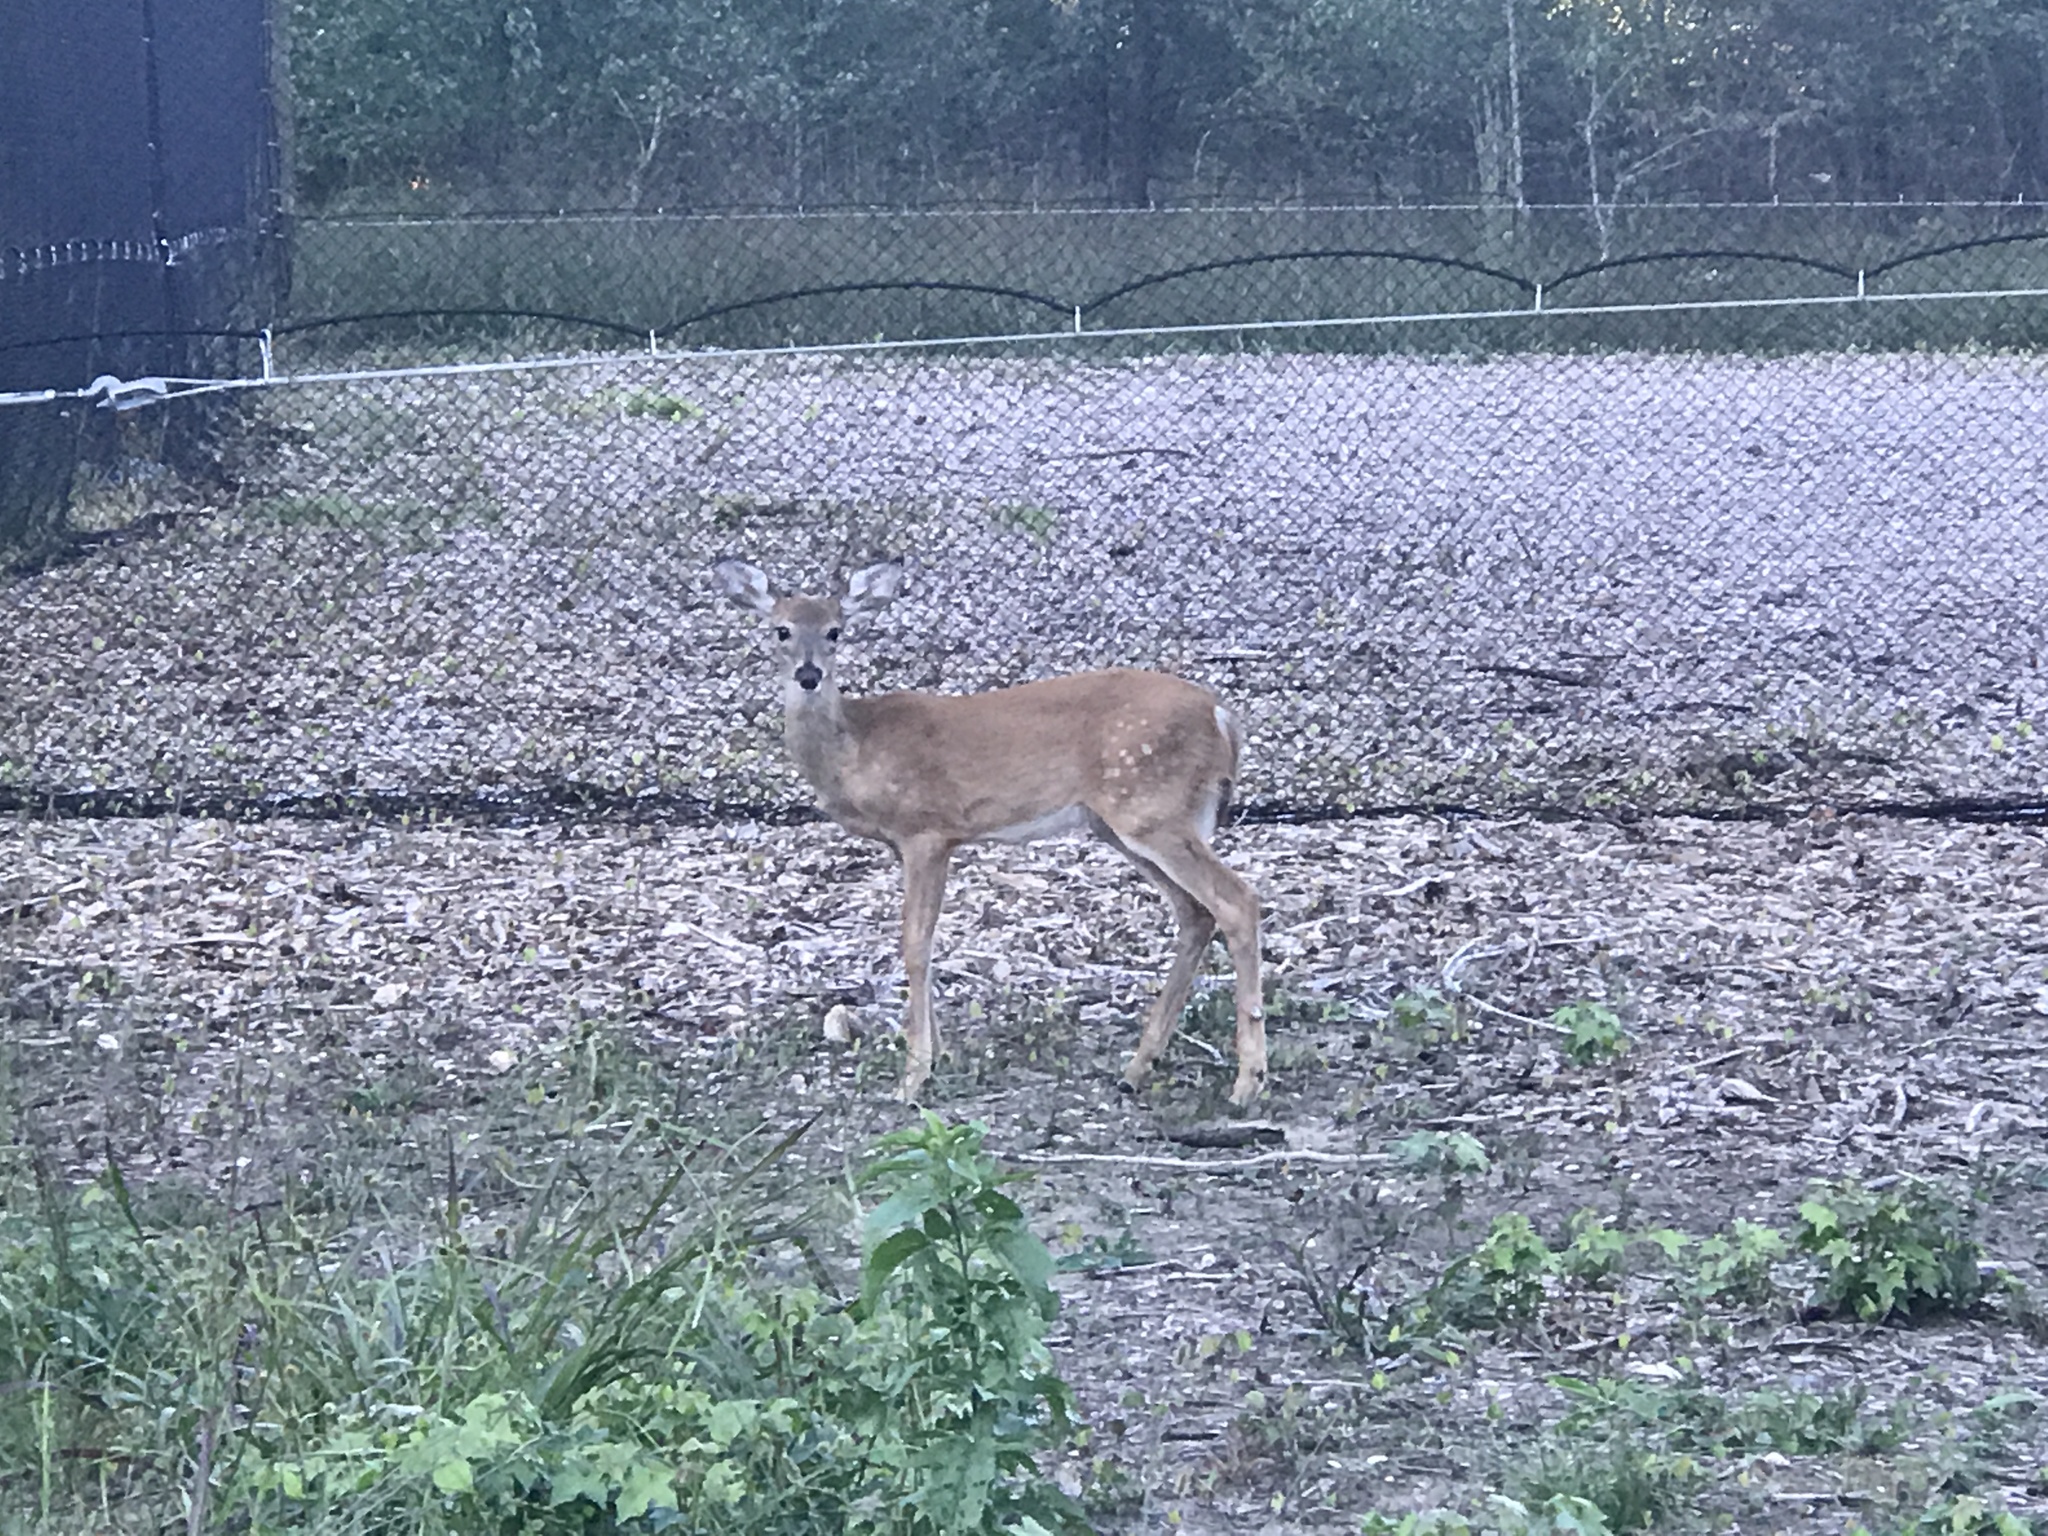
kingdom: Animalia
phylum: Chordata
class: Mammalia
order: Artiodactyla
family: Cervidae
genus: Odocoileus
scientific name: Odocoileus virginianus
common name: White-tailed deer
